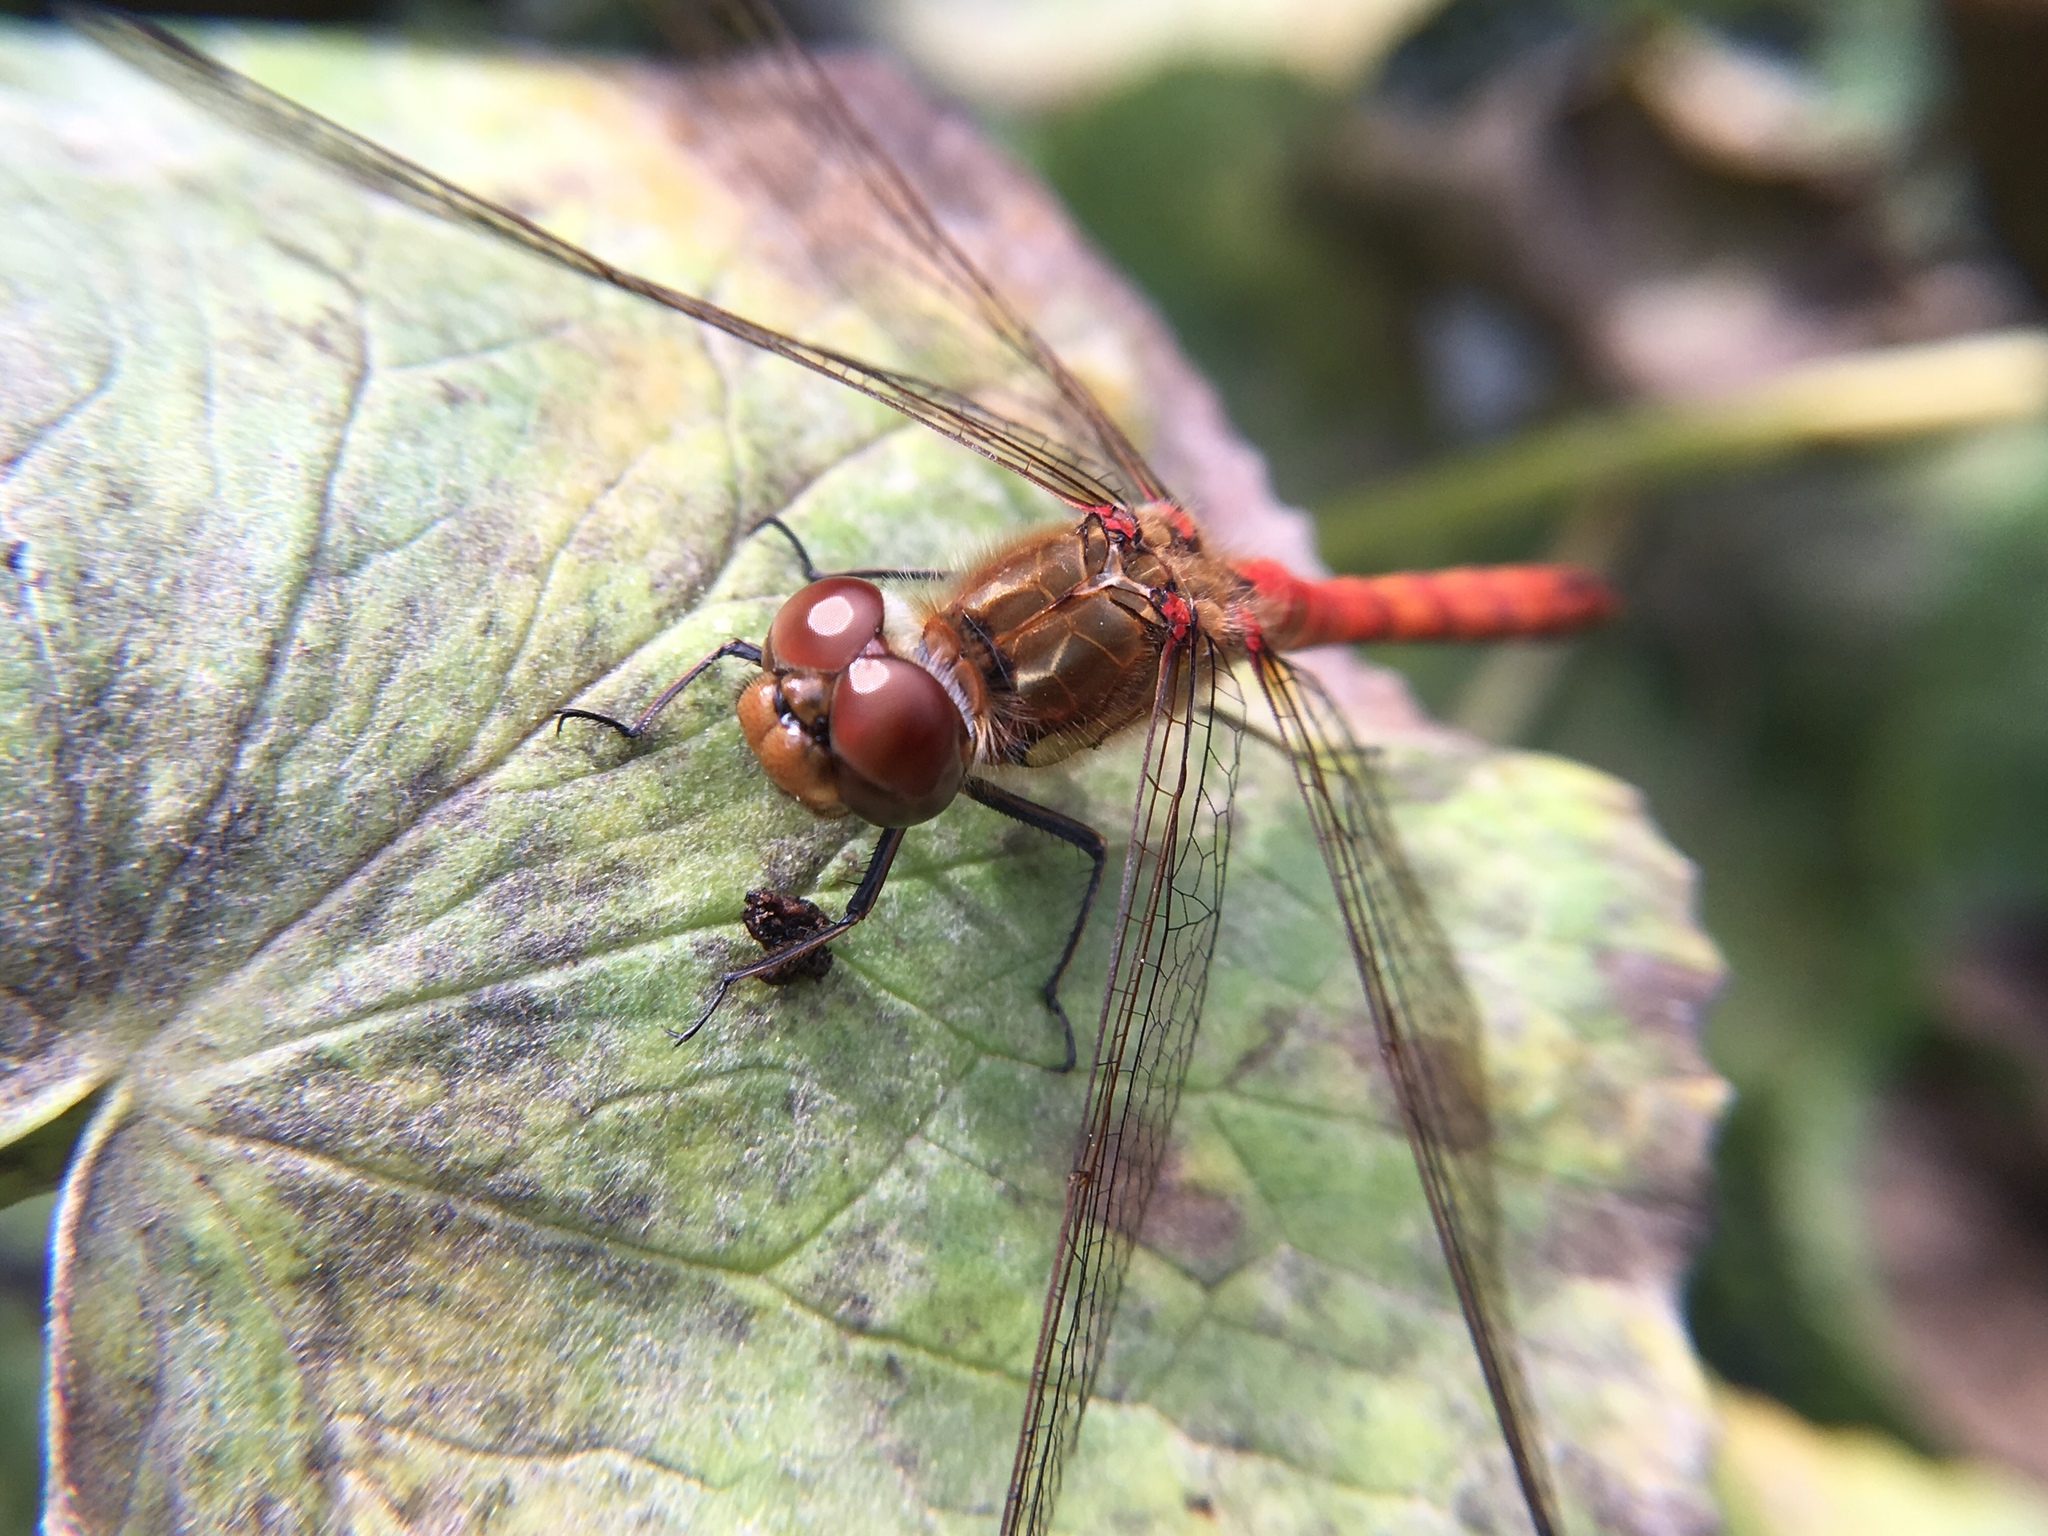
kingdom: Animalia
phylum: Arthropoda
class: Insecta
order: Odonata
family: Libellulidae
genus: Sympetrum
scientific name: Sympetrum striolatum
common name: Common darter
